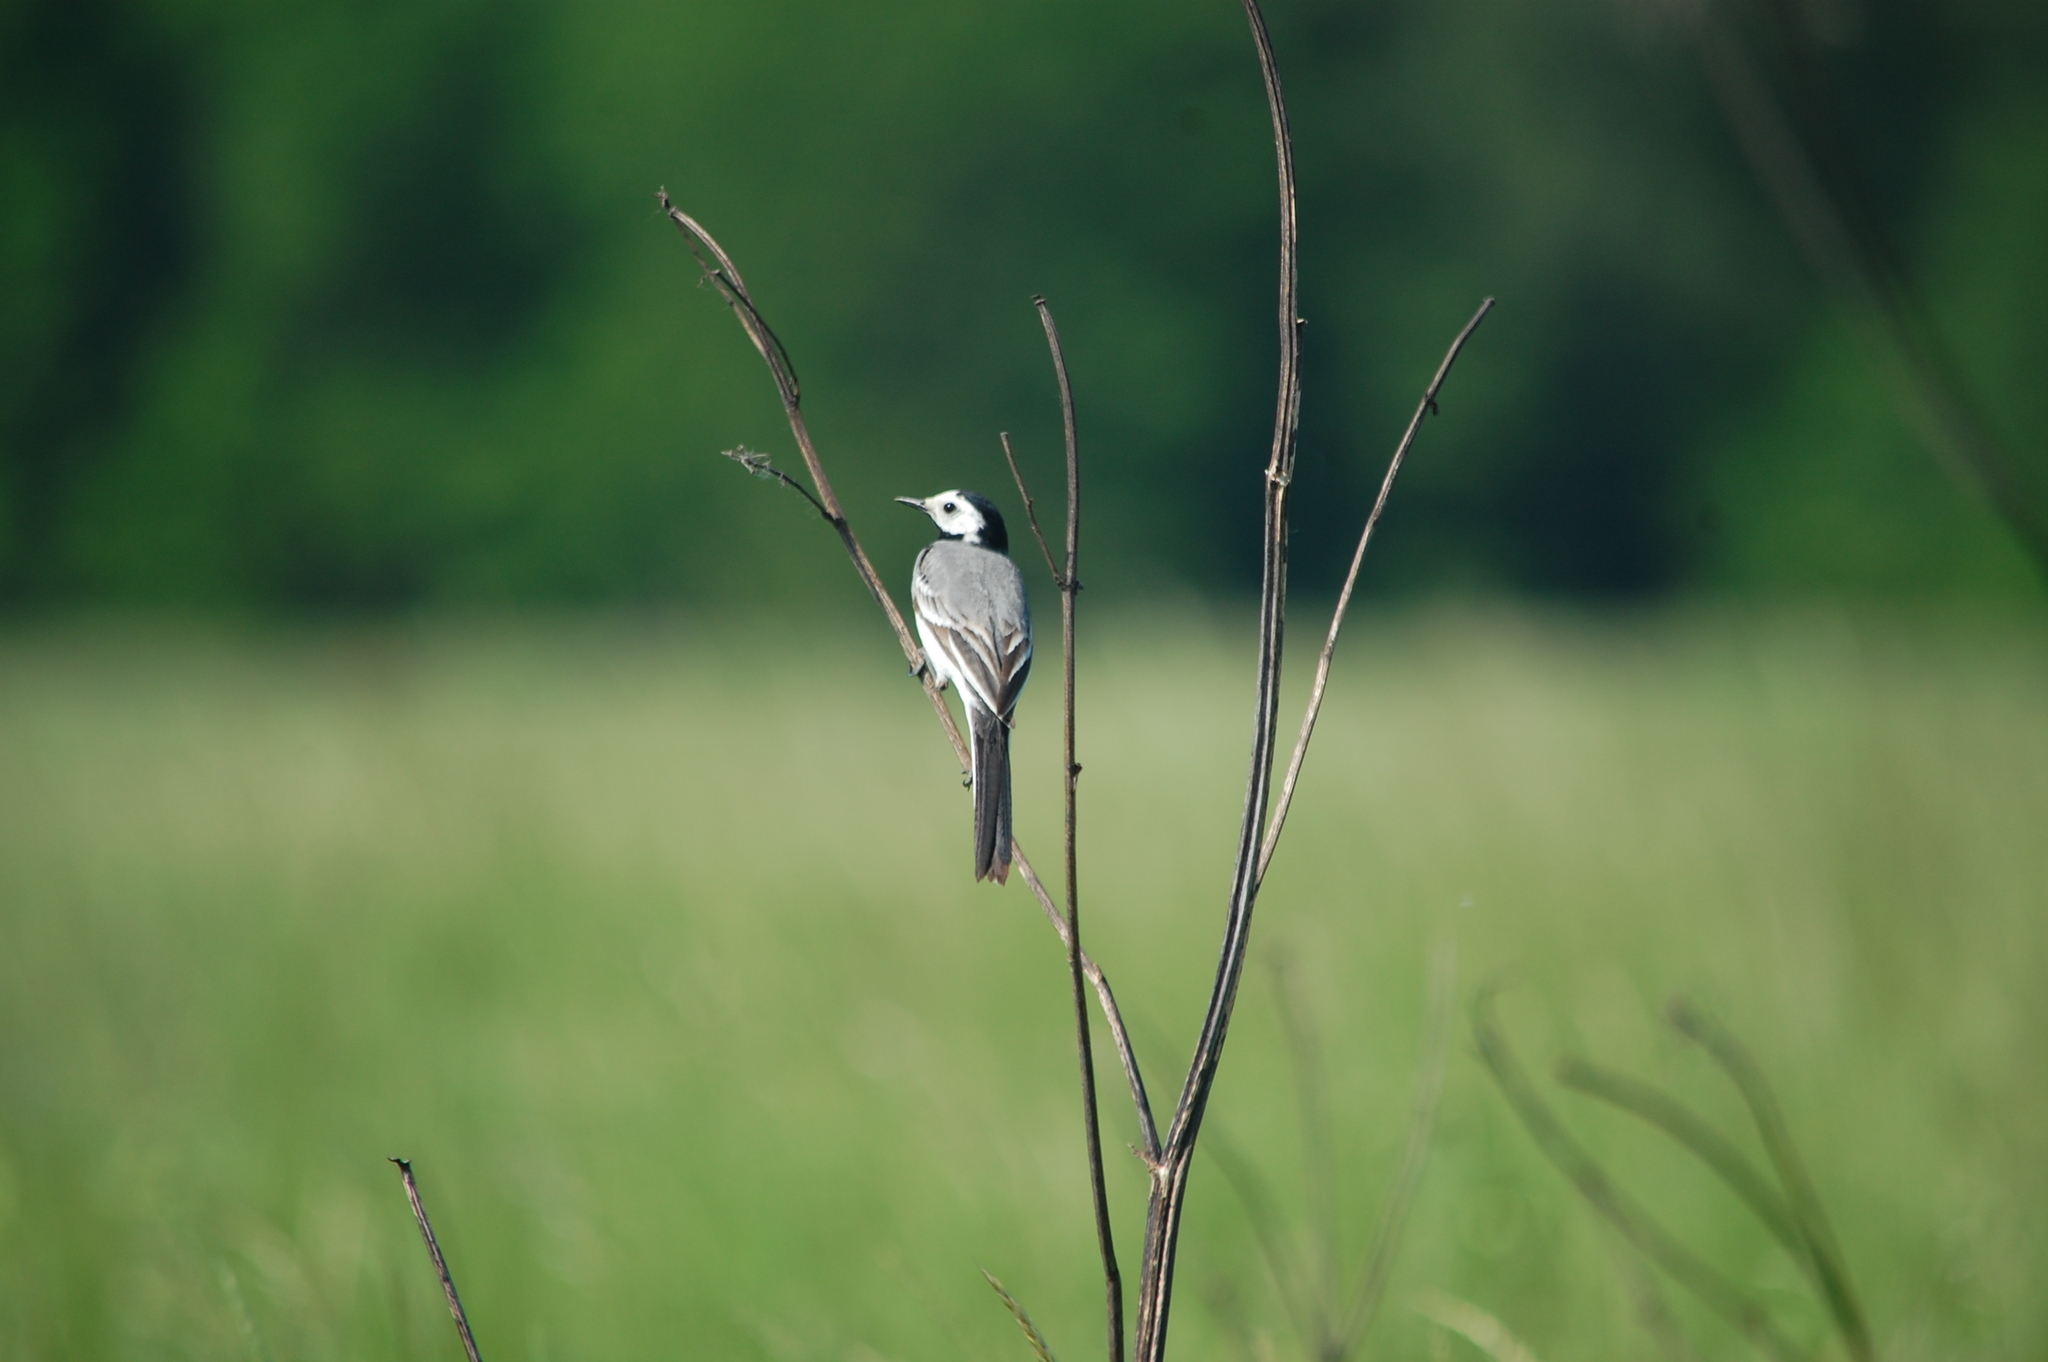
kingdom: Animalia
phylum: Chordata
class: Aves
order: Passeriformes
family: Motacillidae
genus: Motacilla
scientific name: Motacilla alba
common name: White wagtail
